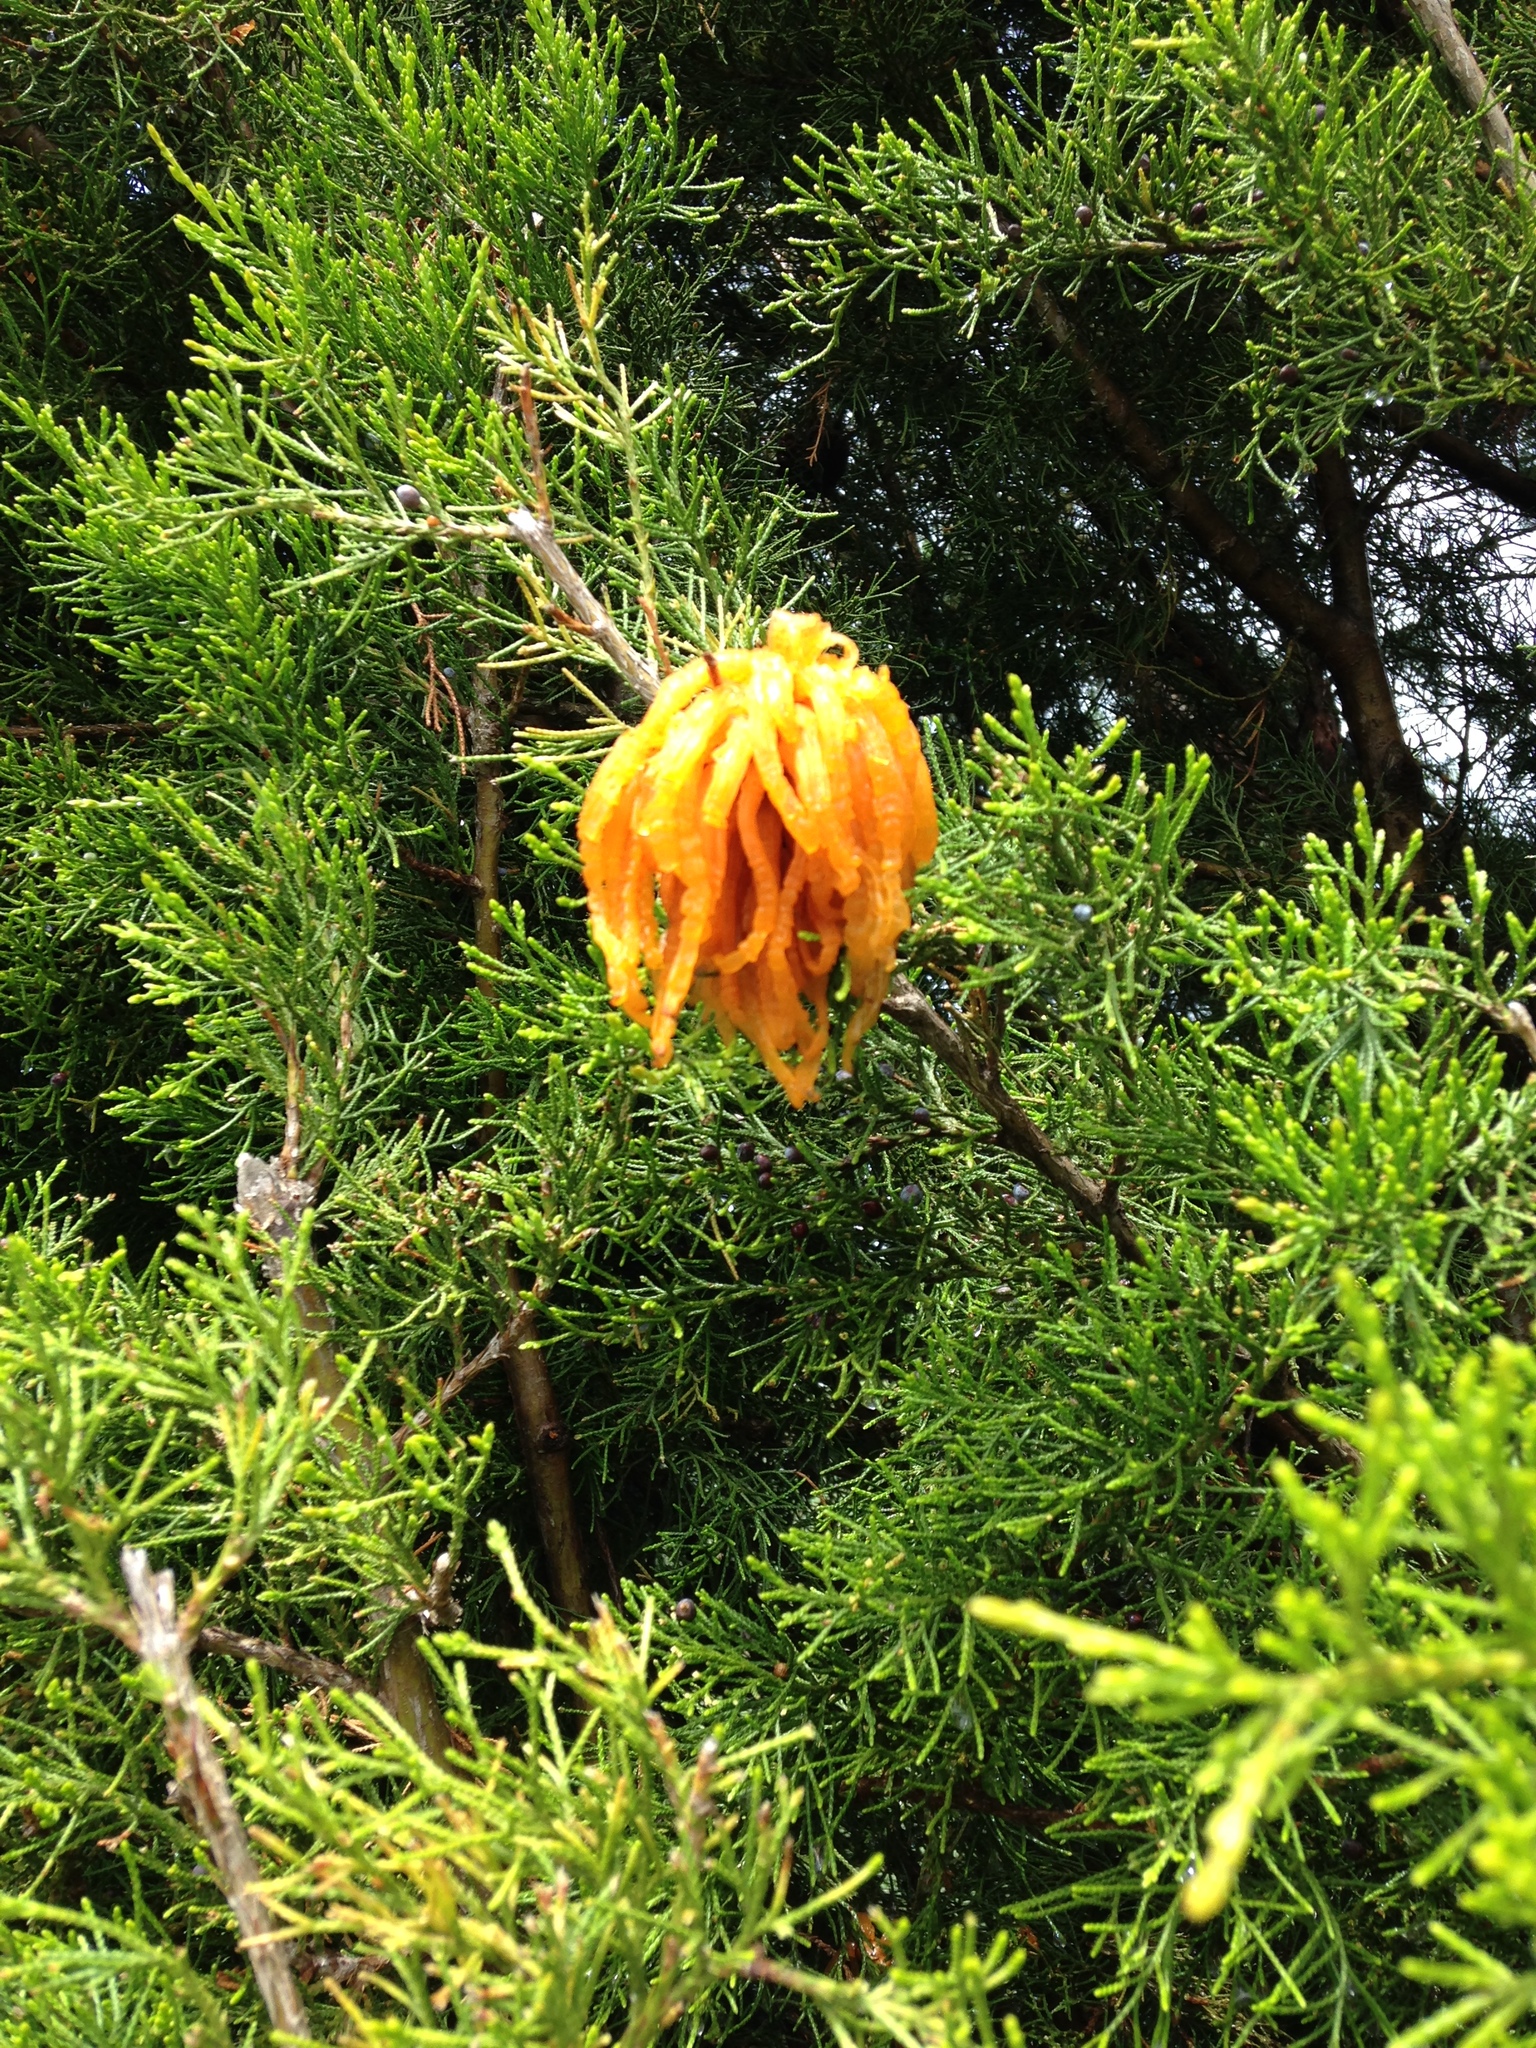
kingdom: Fungi
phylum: Basidiomycota
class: Pucciniomycetes
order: Pucciniales
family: Gymnosporangiaceae
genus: Gymnosporangium
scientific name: Gymnosporangium juniperi-virginianae
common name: Juniper-apple rust
